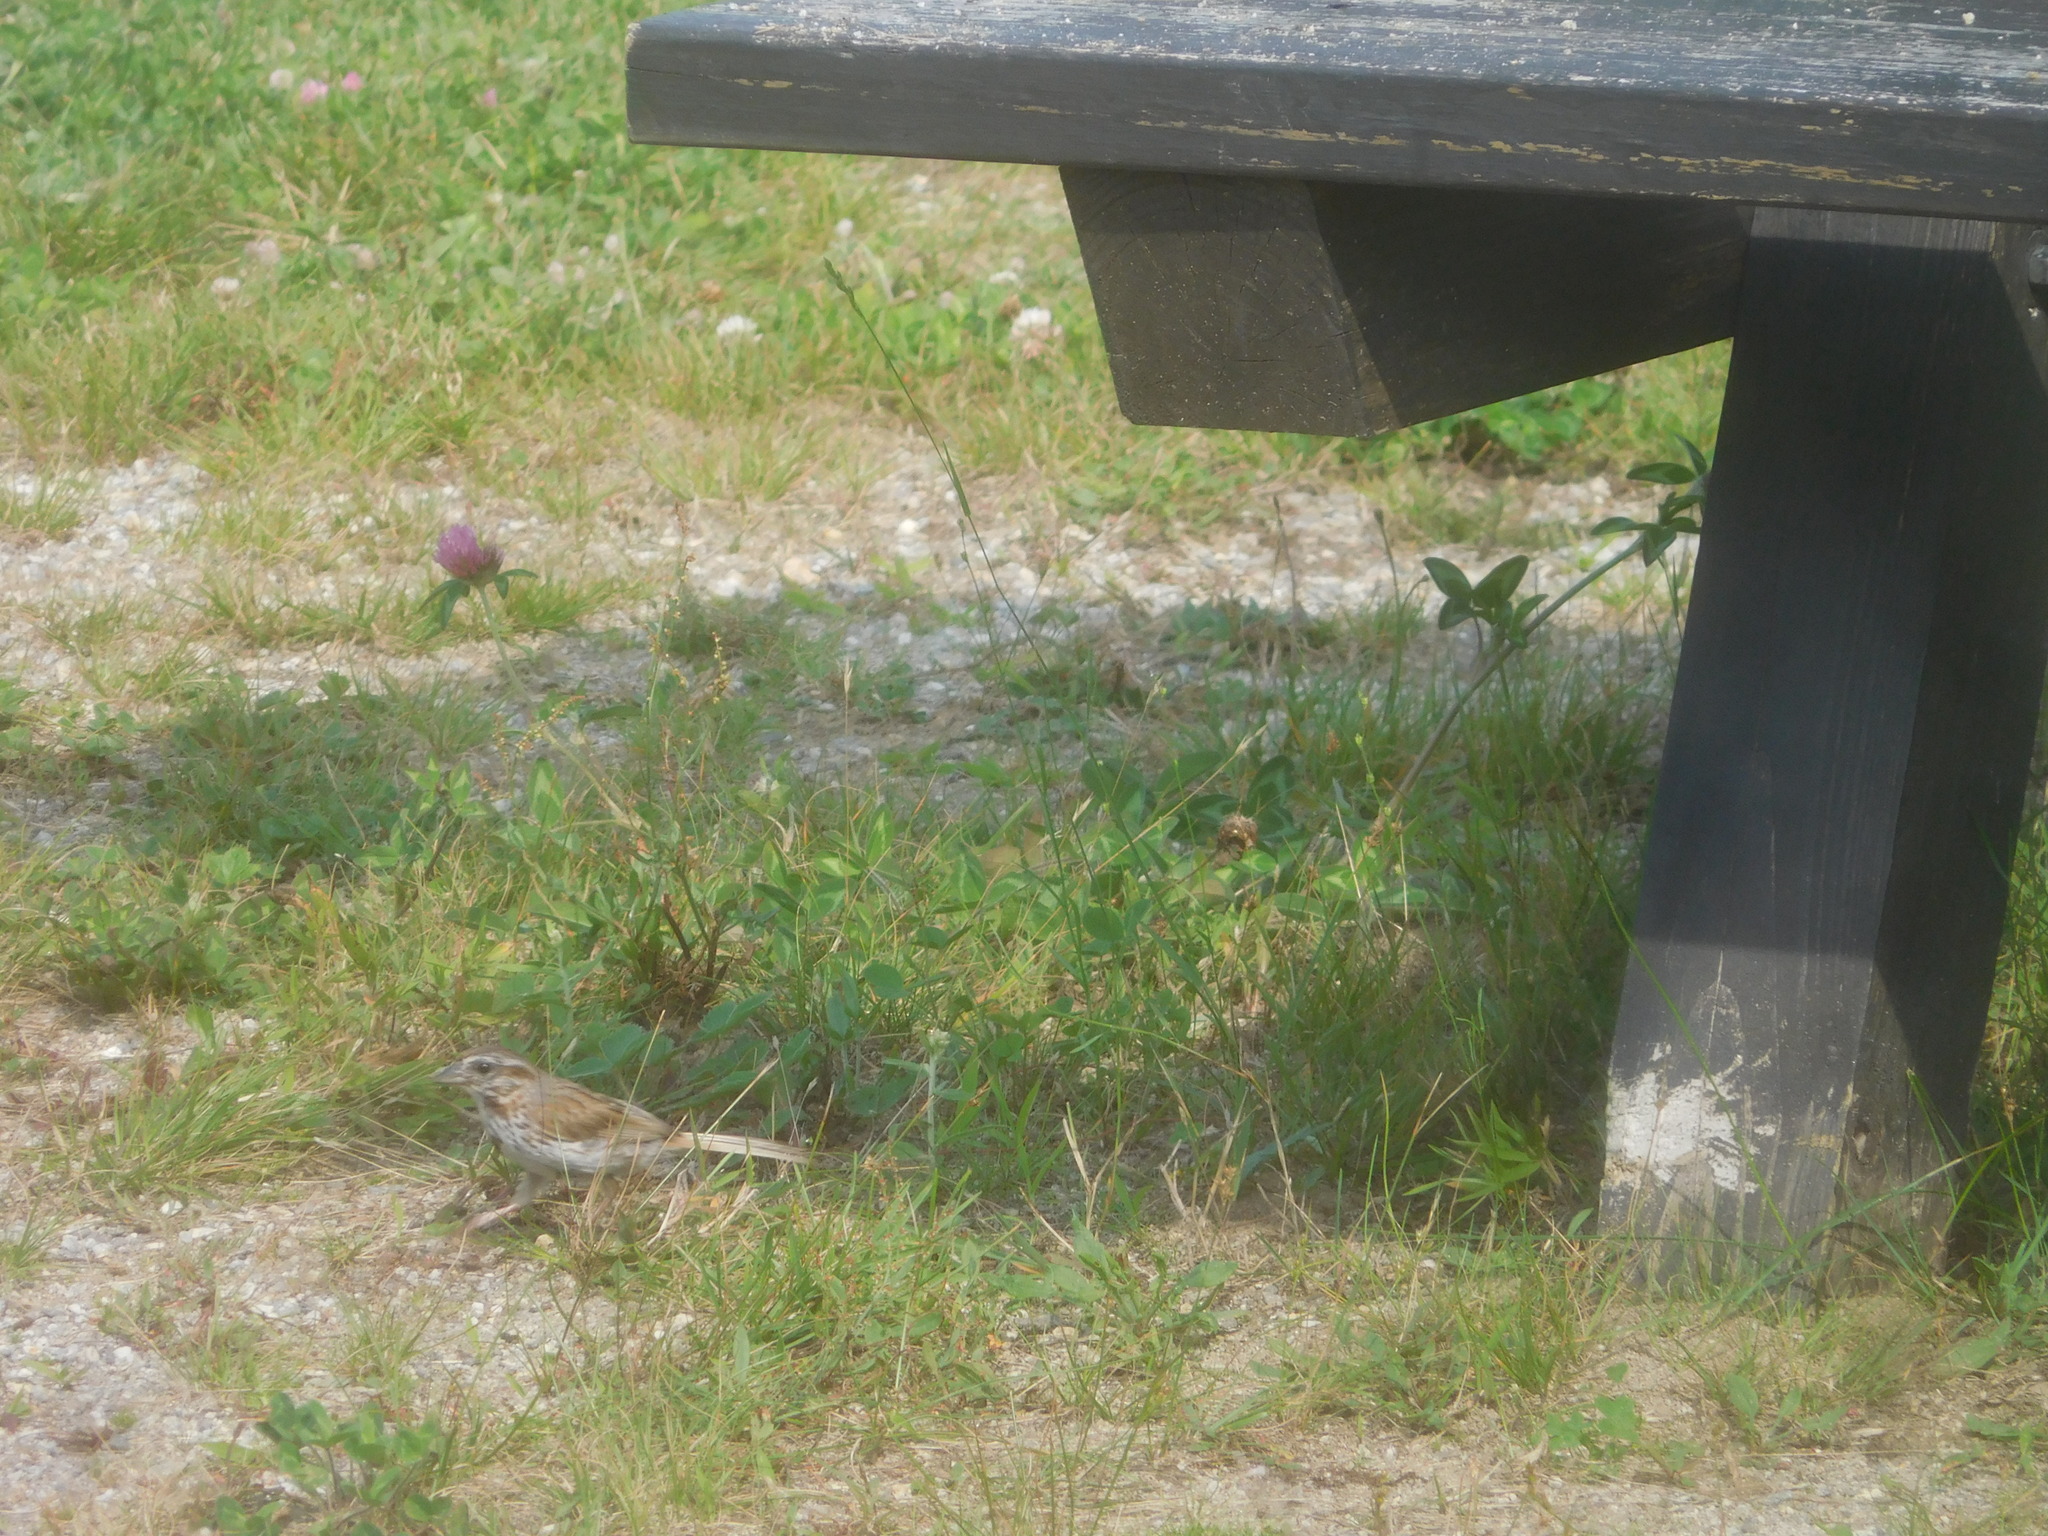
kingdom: Animalia
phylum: Chordata
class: Aves
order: Passeriformes
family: Passerellidae
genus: Melospiza
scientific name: Melospiza melodia
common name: Song sparrow
